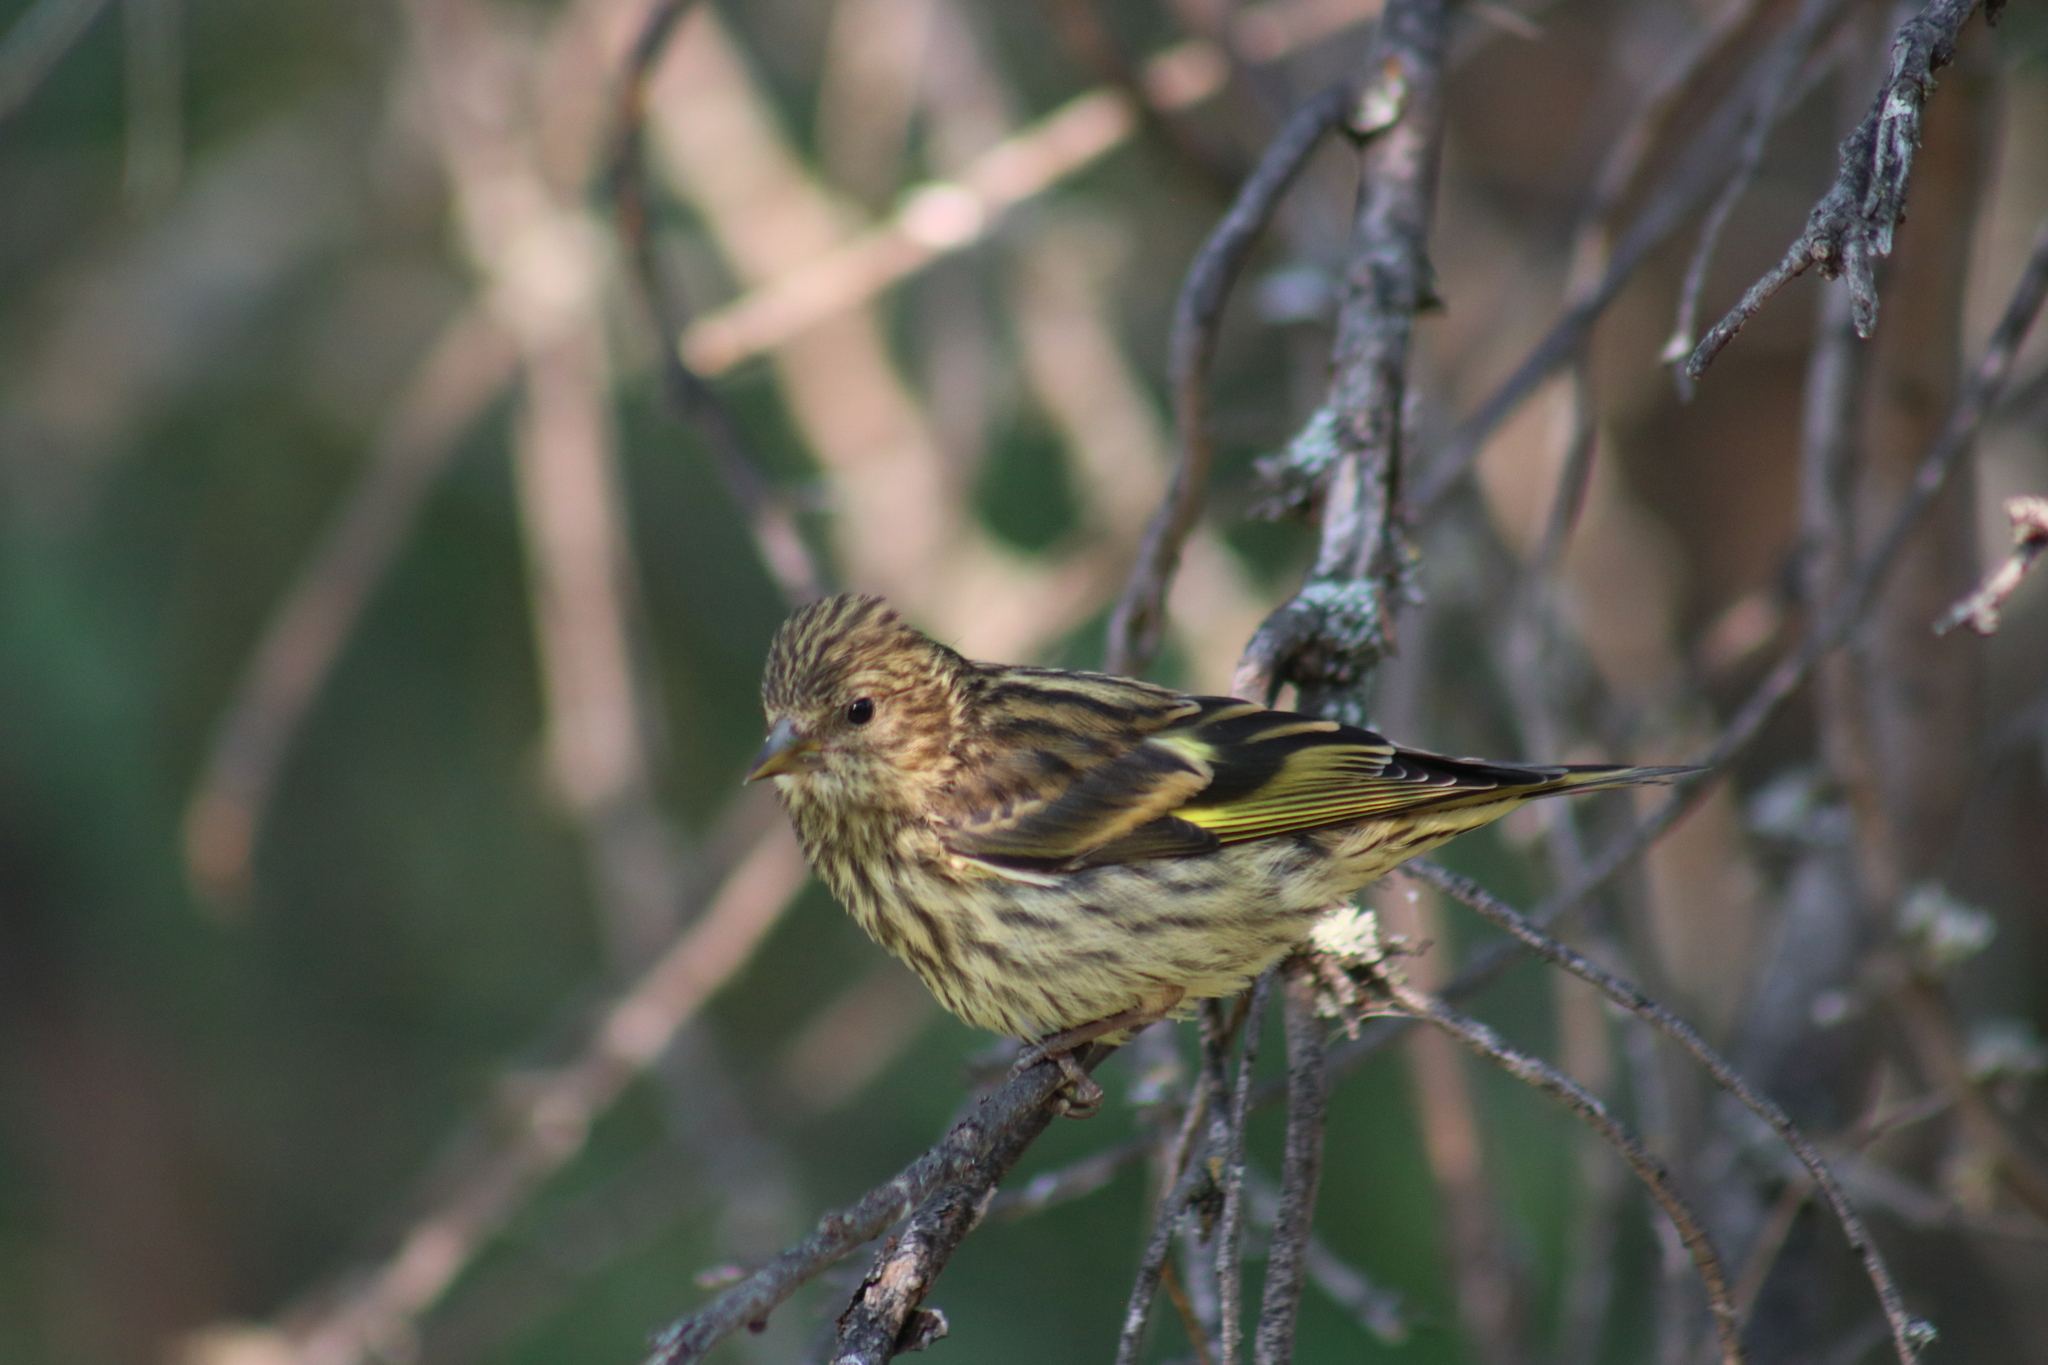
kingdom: Animalia
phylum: Chordata
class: Aves
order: Passeriformes
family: Fringillidae
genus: Spinus
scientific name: Spinus pinus
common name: Pine siskin
